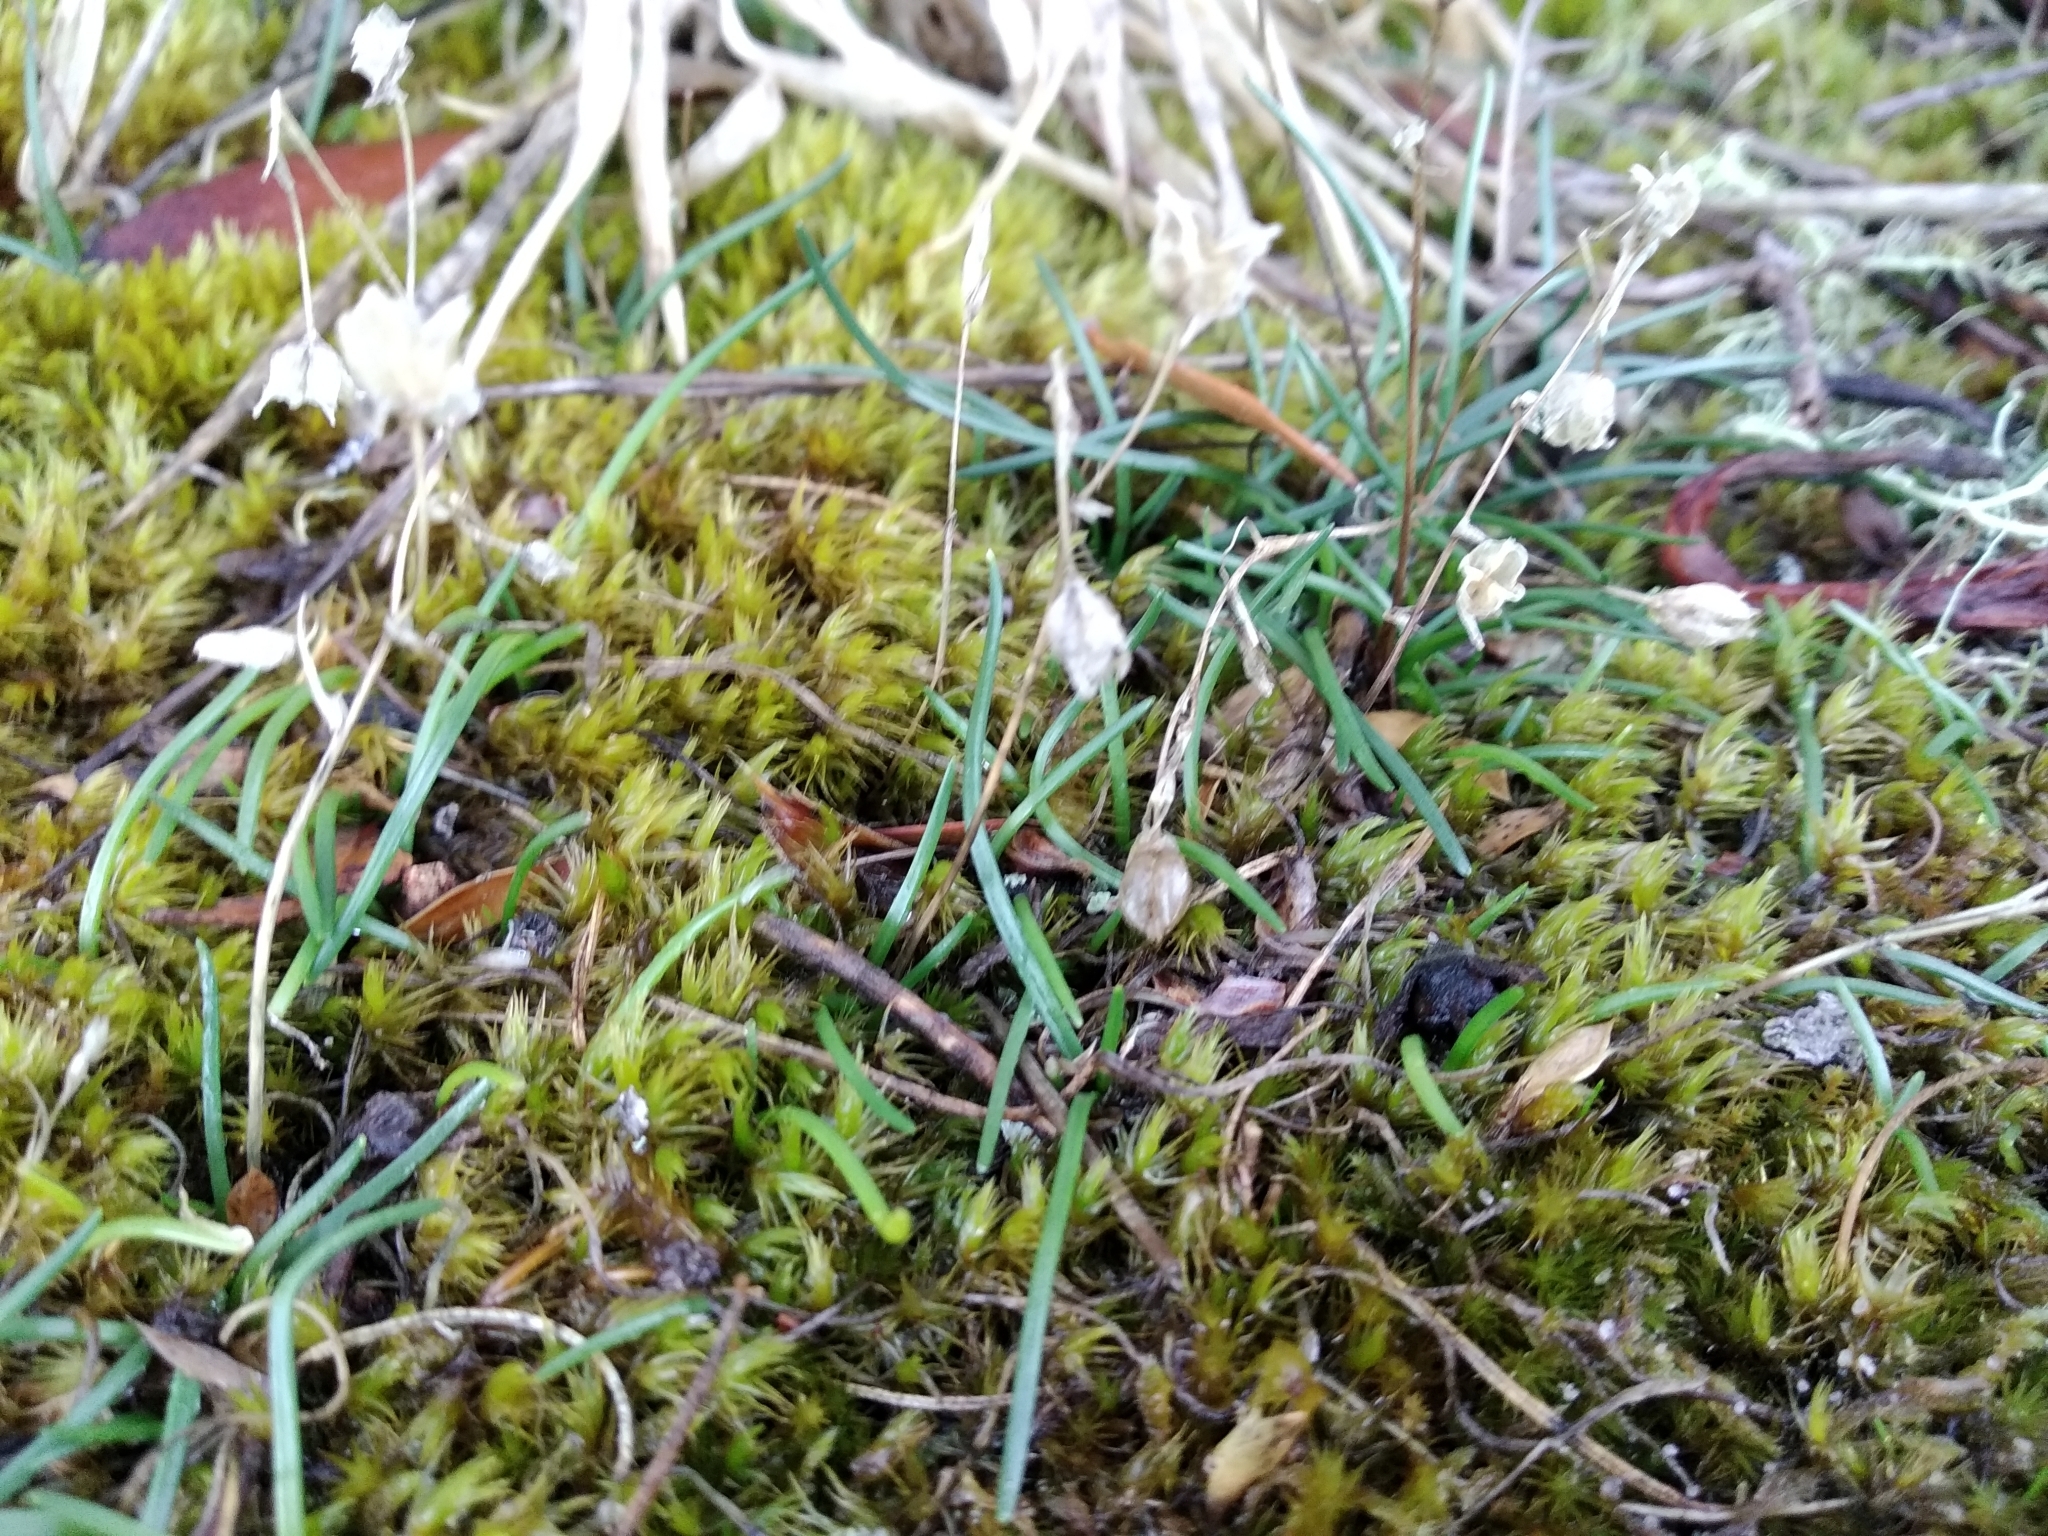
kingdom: Plantae
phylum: Tracheophyta
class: Liliopsida
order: Asparagales
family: Asparagaceae
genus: Ornithogalum
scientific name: Ornithogalum niveum
